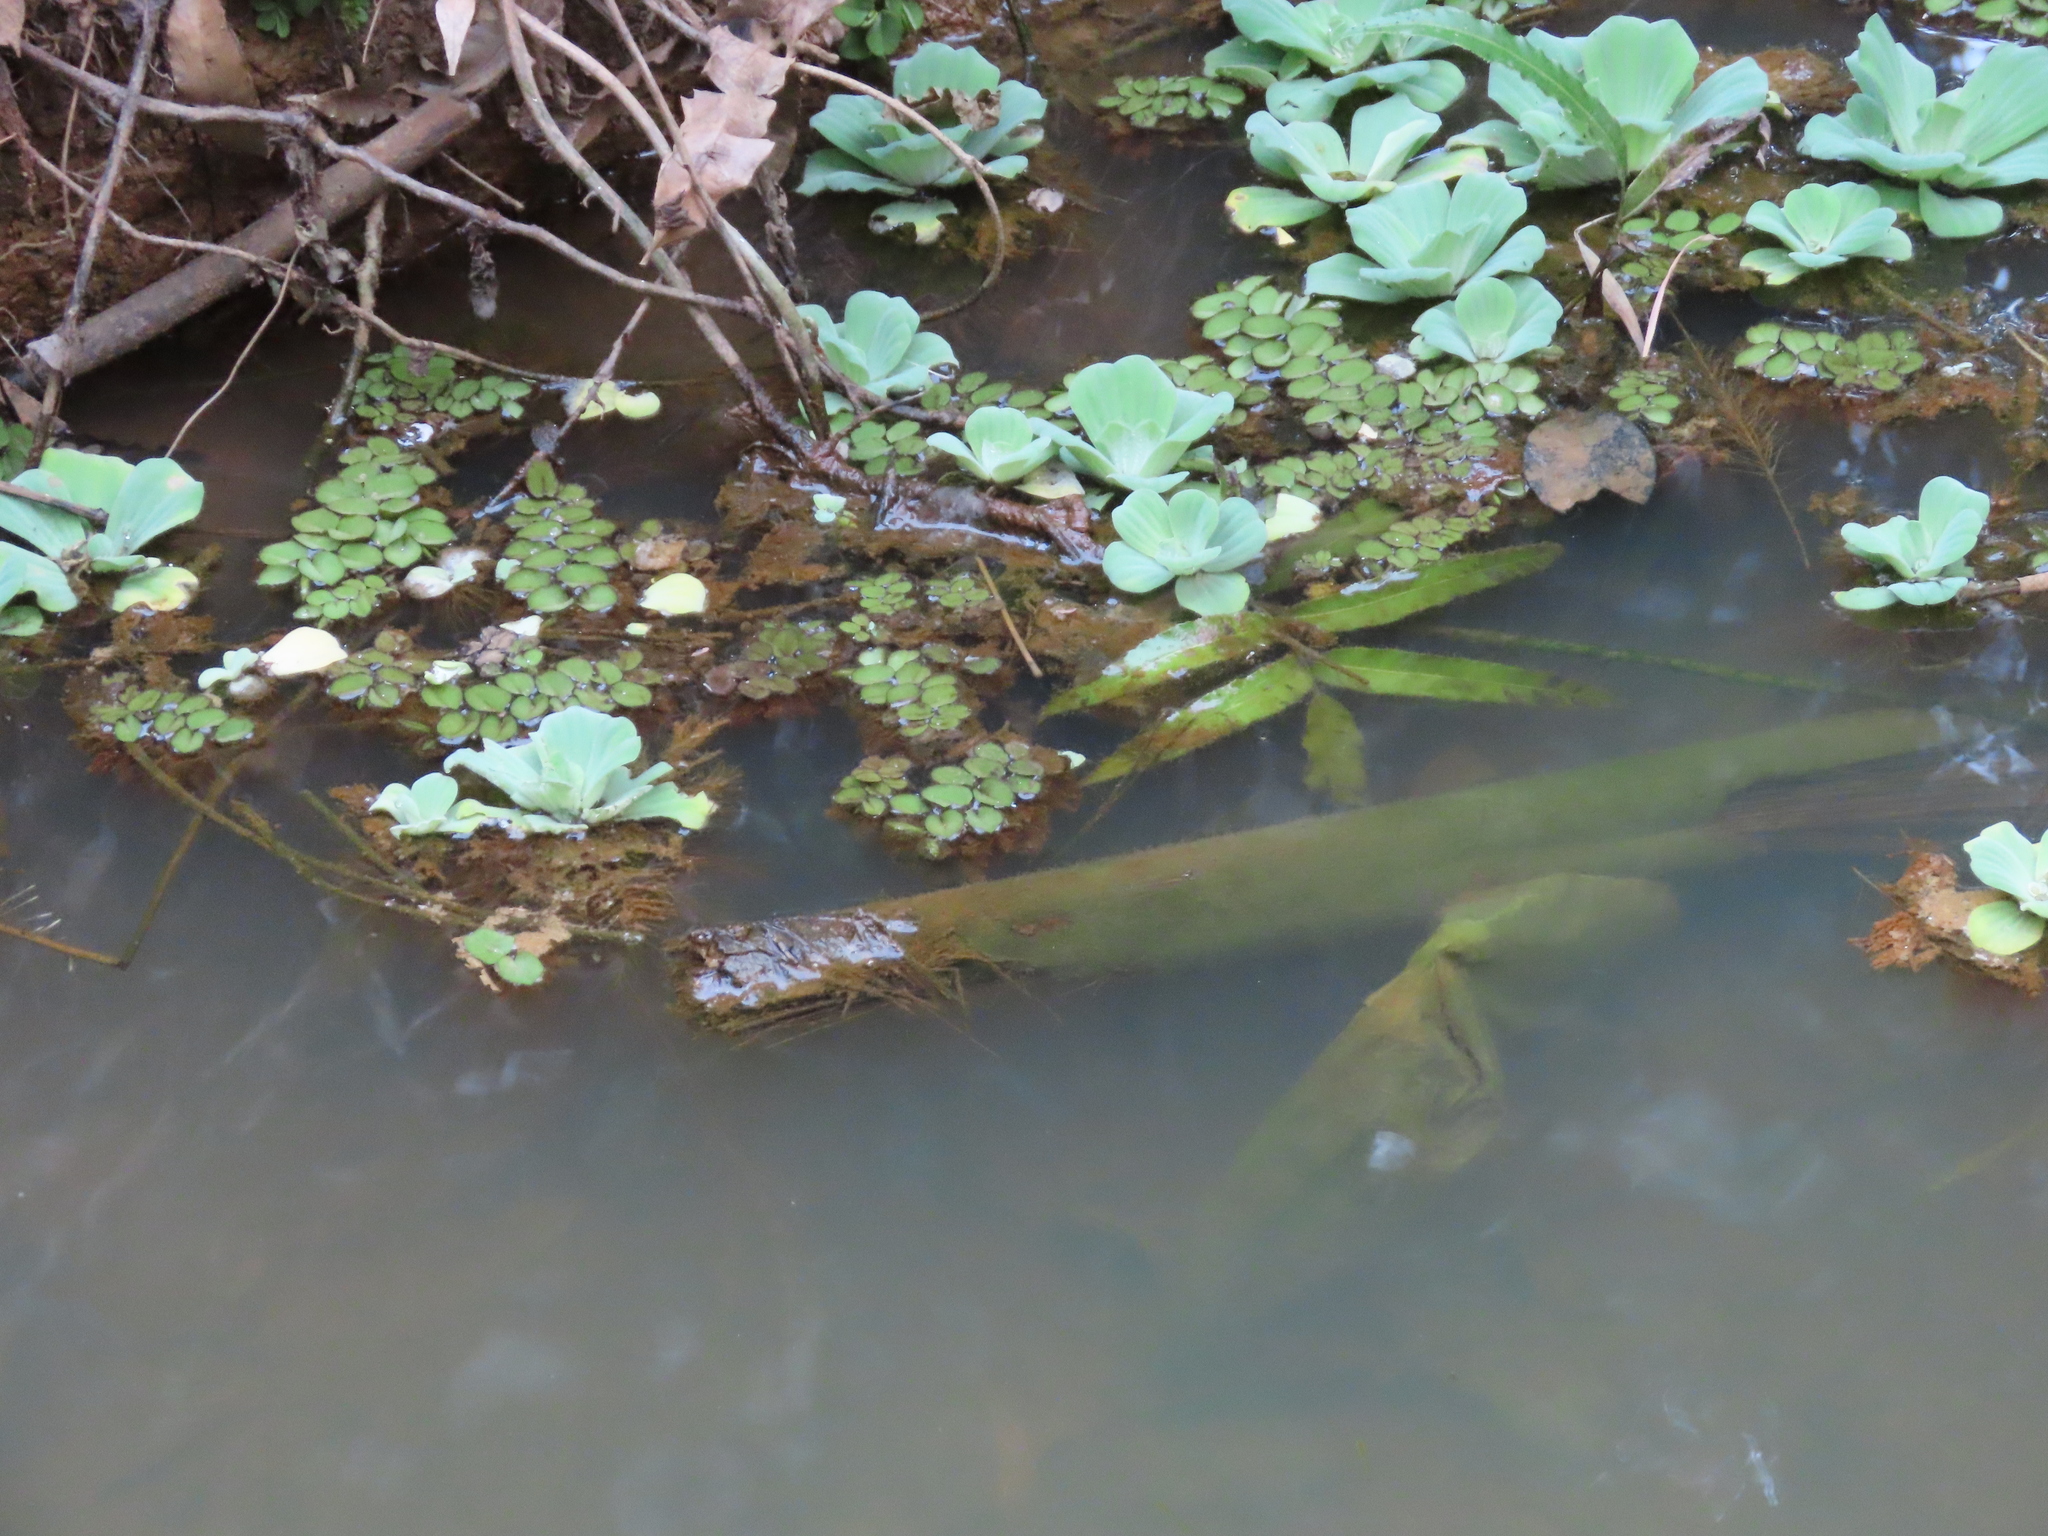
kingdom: Plantae
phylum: Tracheophyta
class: Liliopsida
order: Alismatales
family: Araceae
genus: Pistia
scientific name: Pistia stratiotes
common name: Water lettuce
